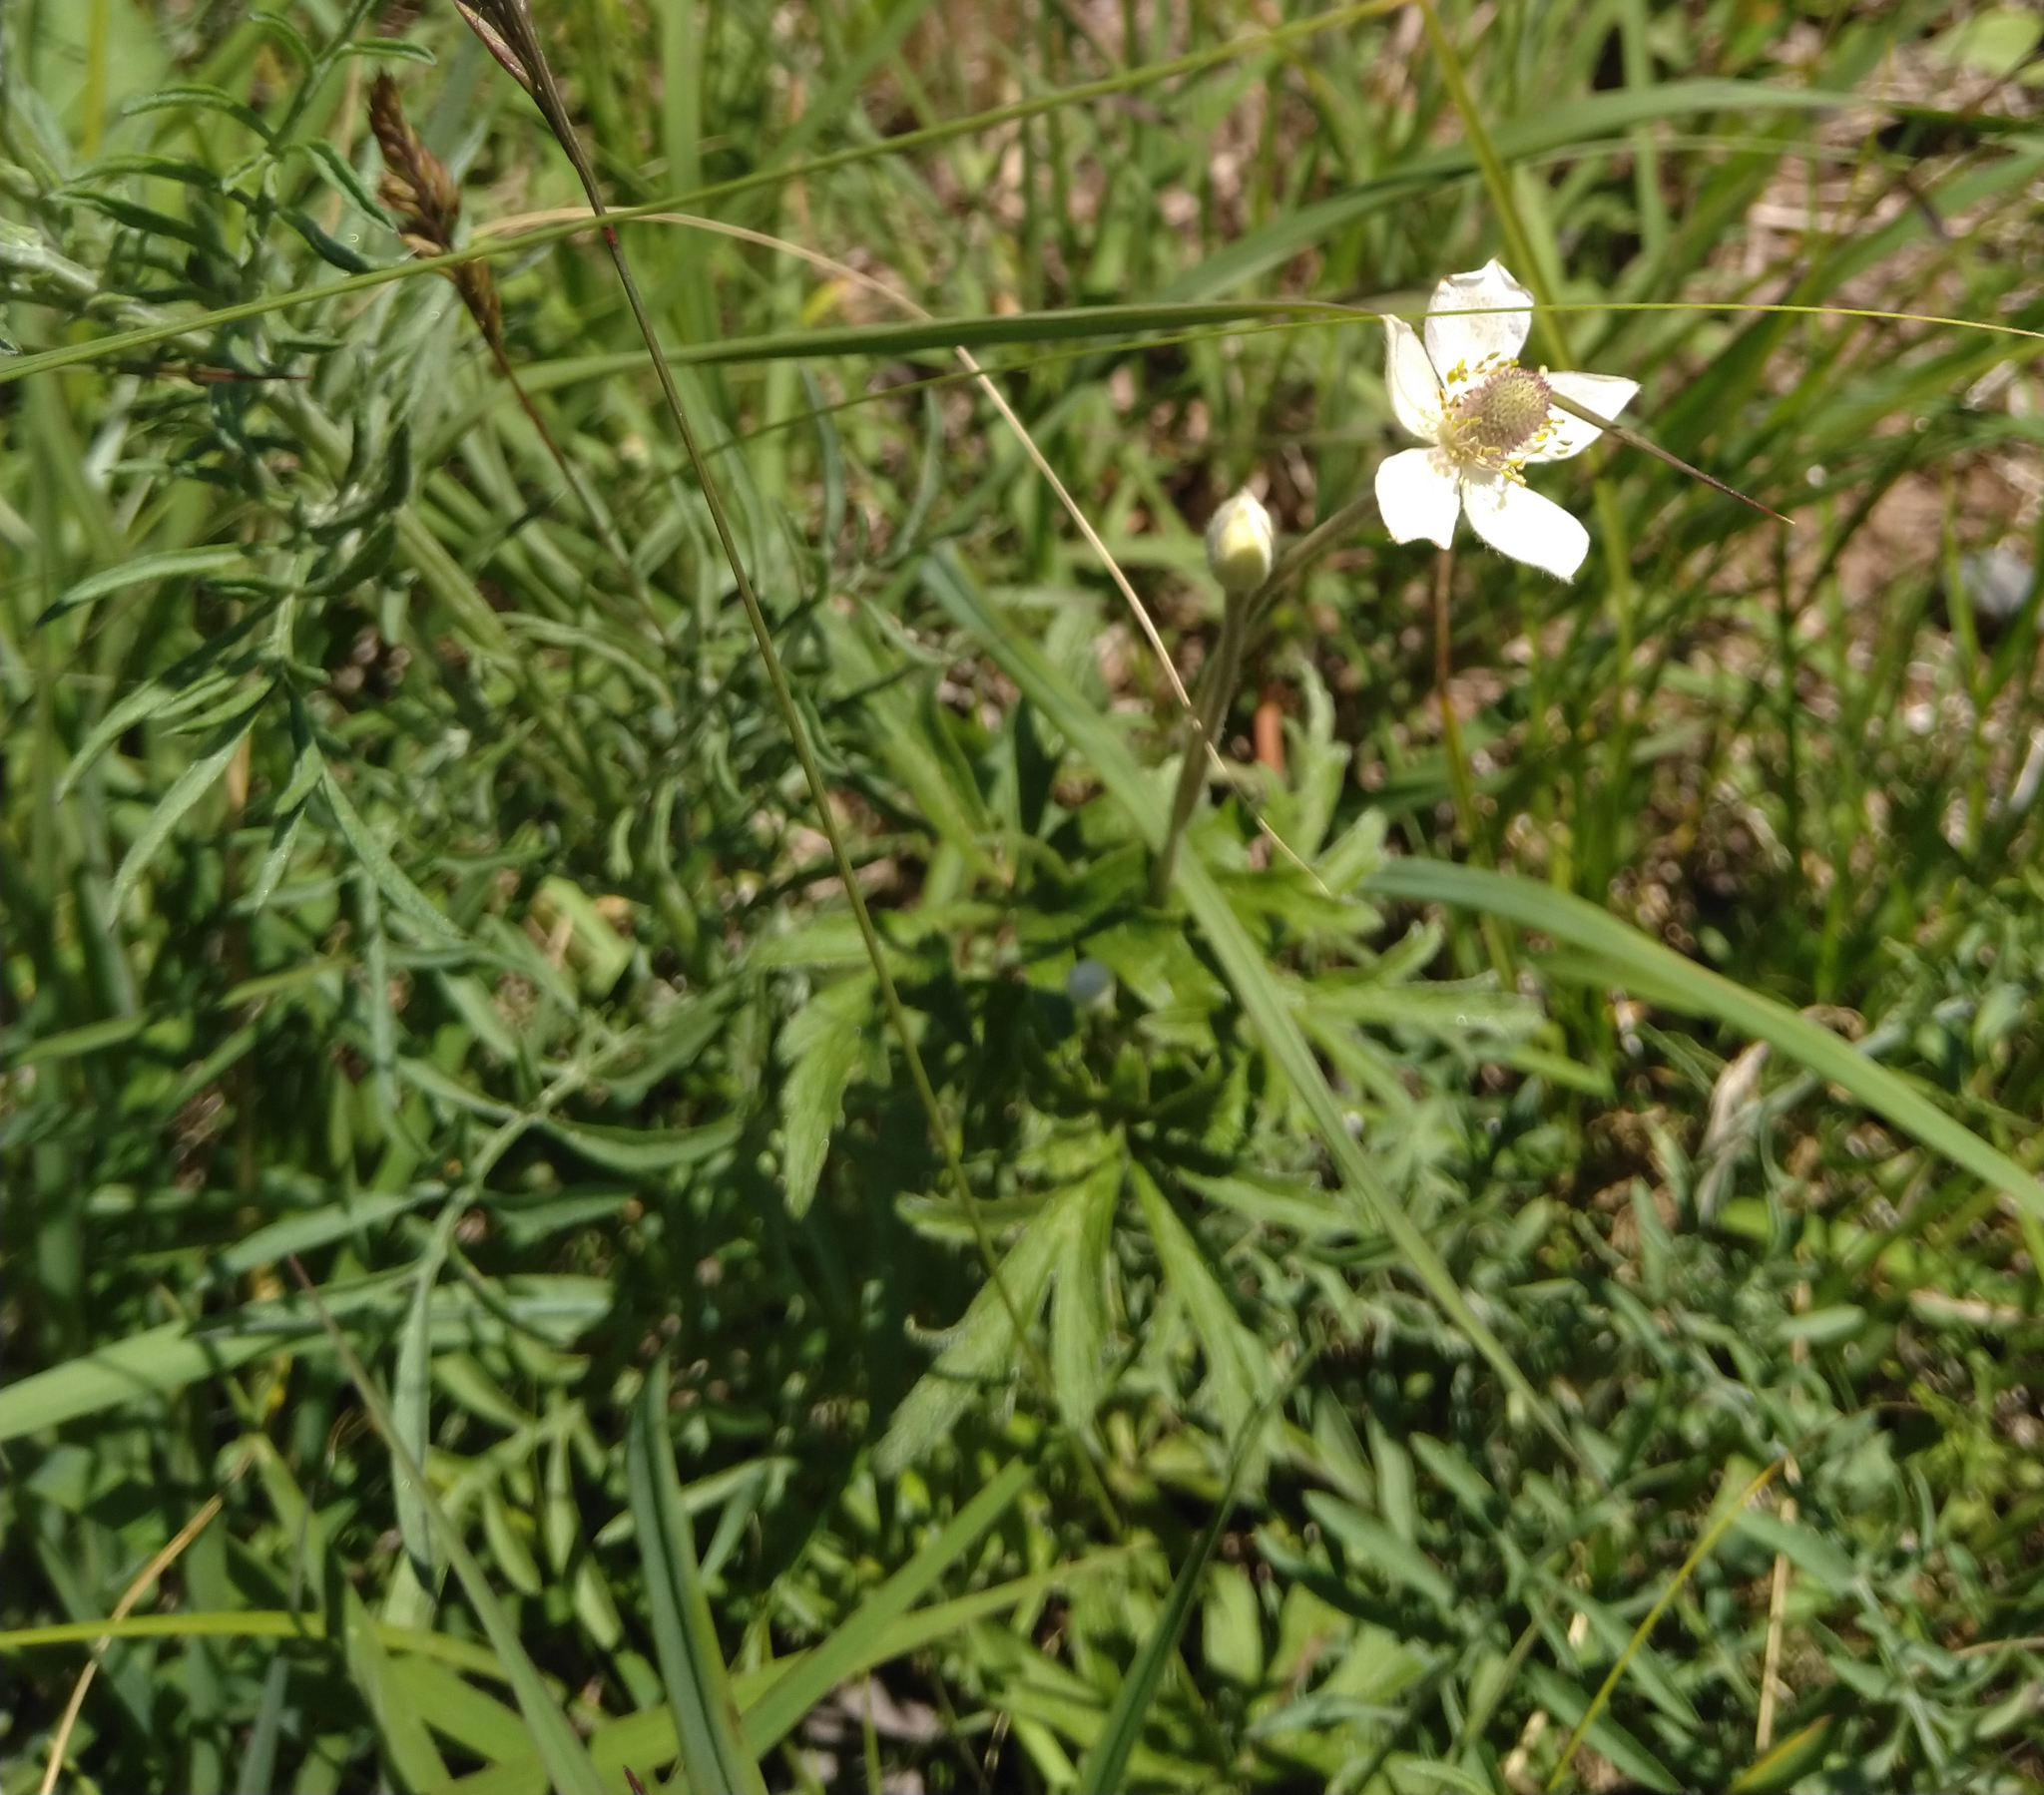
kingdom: Plantae
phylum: Tracheophyta
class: Magnoliopsida
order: Ranunculales
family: Ranunculaceae
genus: Anemone
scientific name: Anemone cylindrica
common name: Candle anemone
